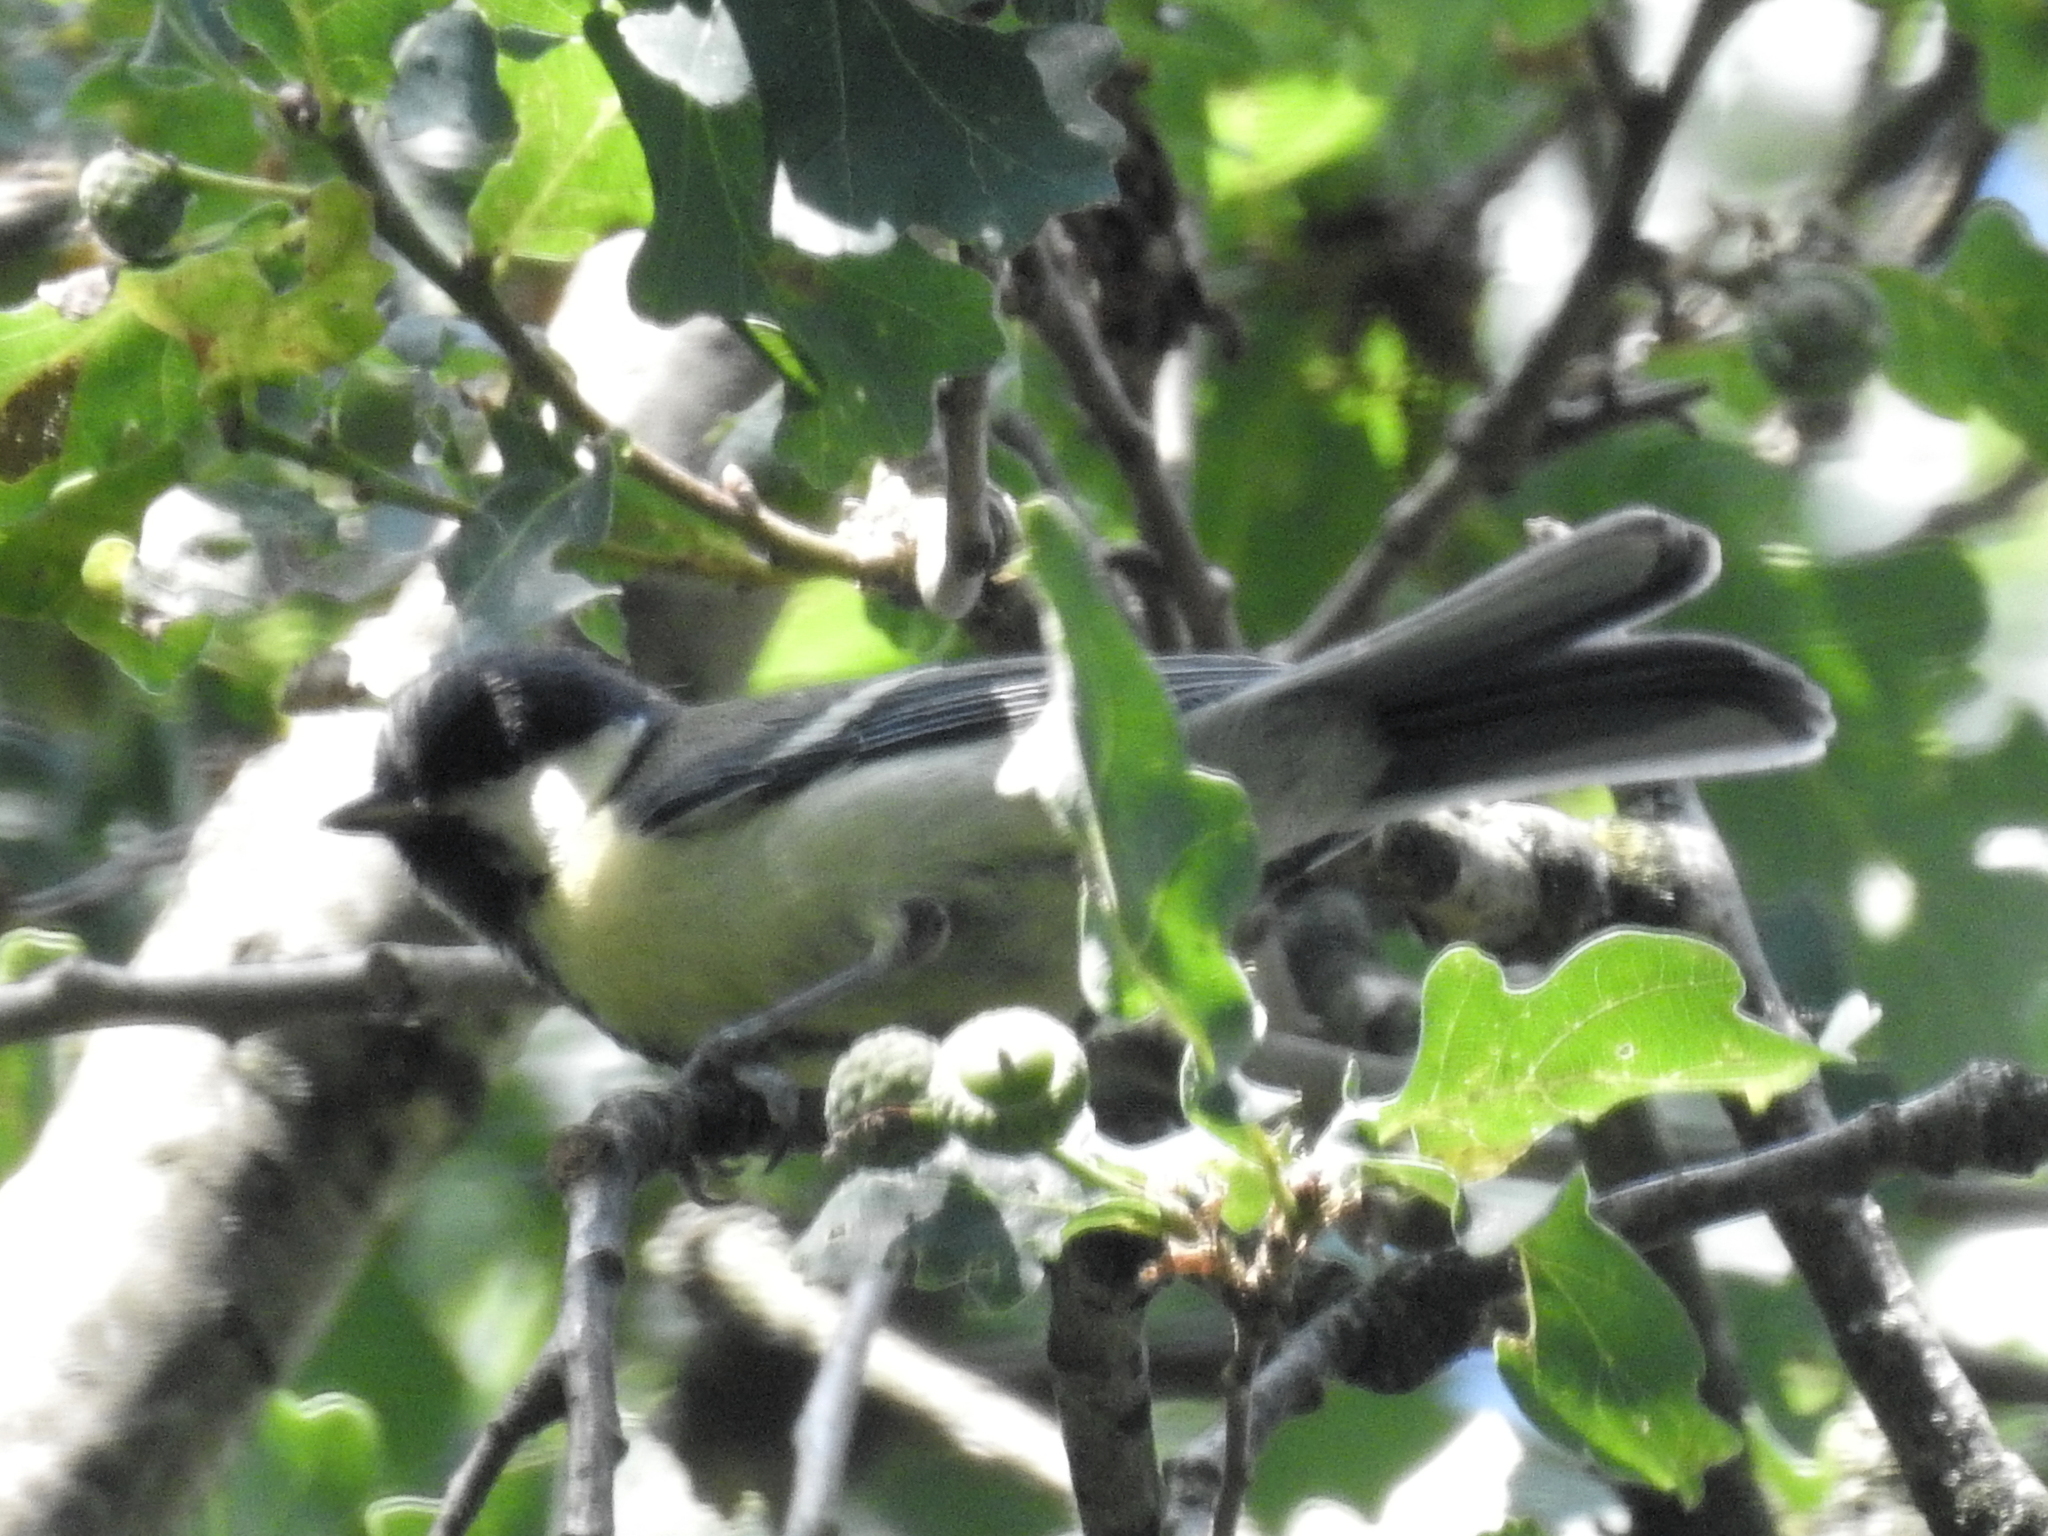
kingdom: Animalia
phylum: Chordata
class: Aves
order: Passeriformes
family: Paridae
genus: Parus
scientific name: Parus major
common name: Great tit
